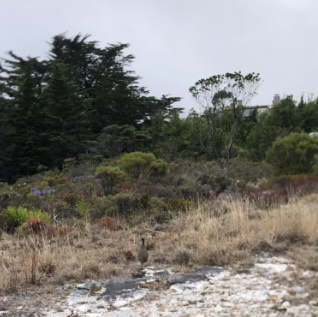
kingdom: Animalia
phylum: Chordata
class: Aves
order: Galliformes
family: Phasianidae
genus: Pternistis
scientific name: Pternistis capensis
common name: Cape spurfowl
